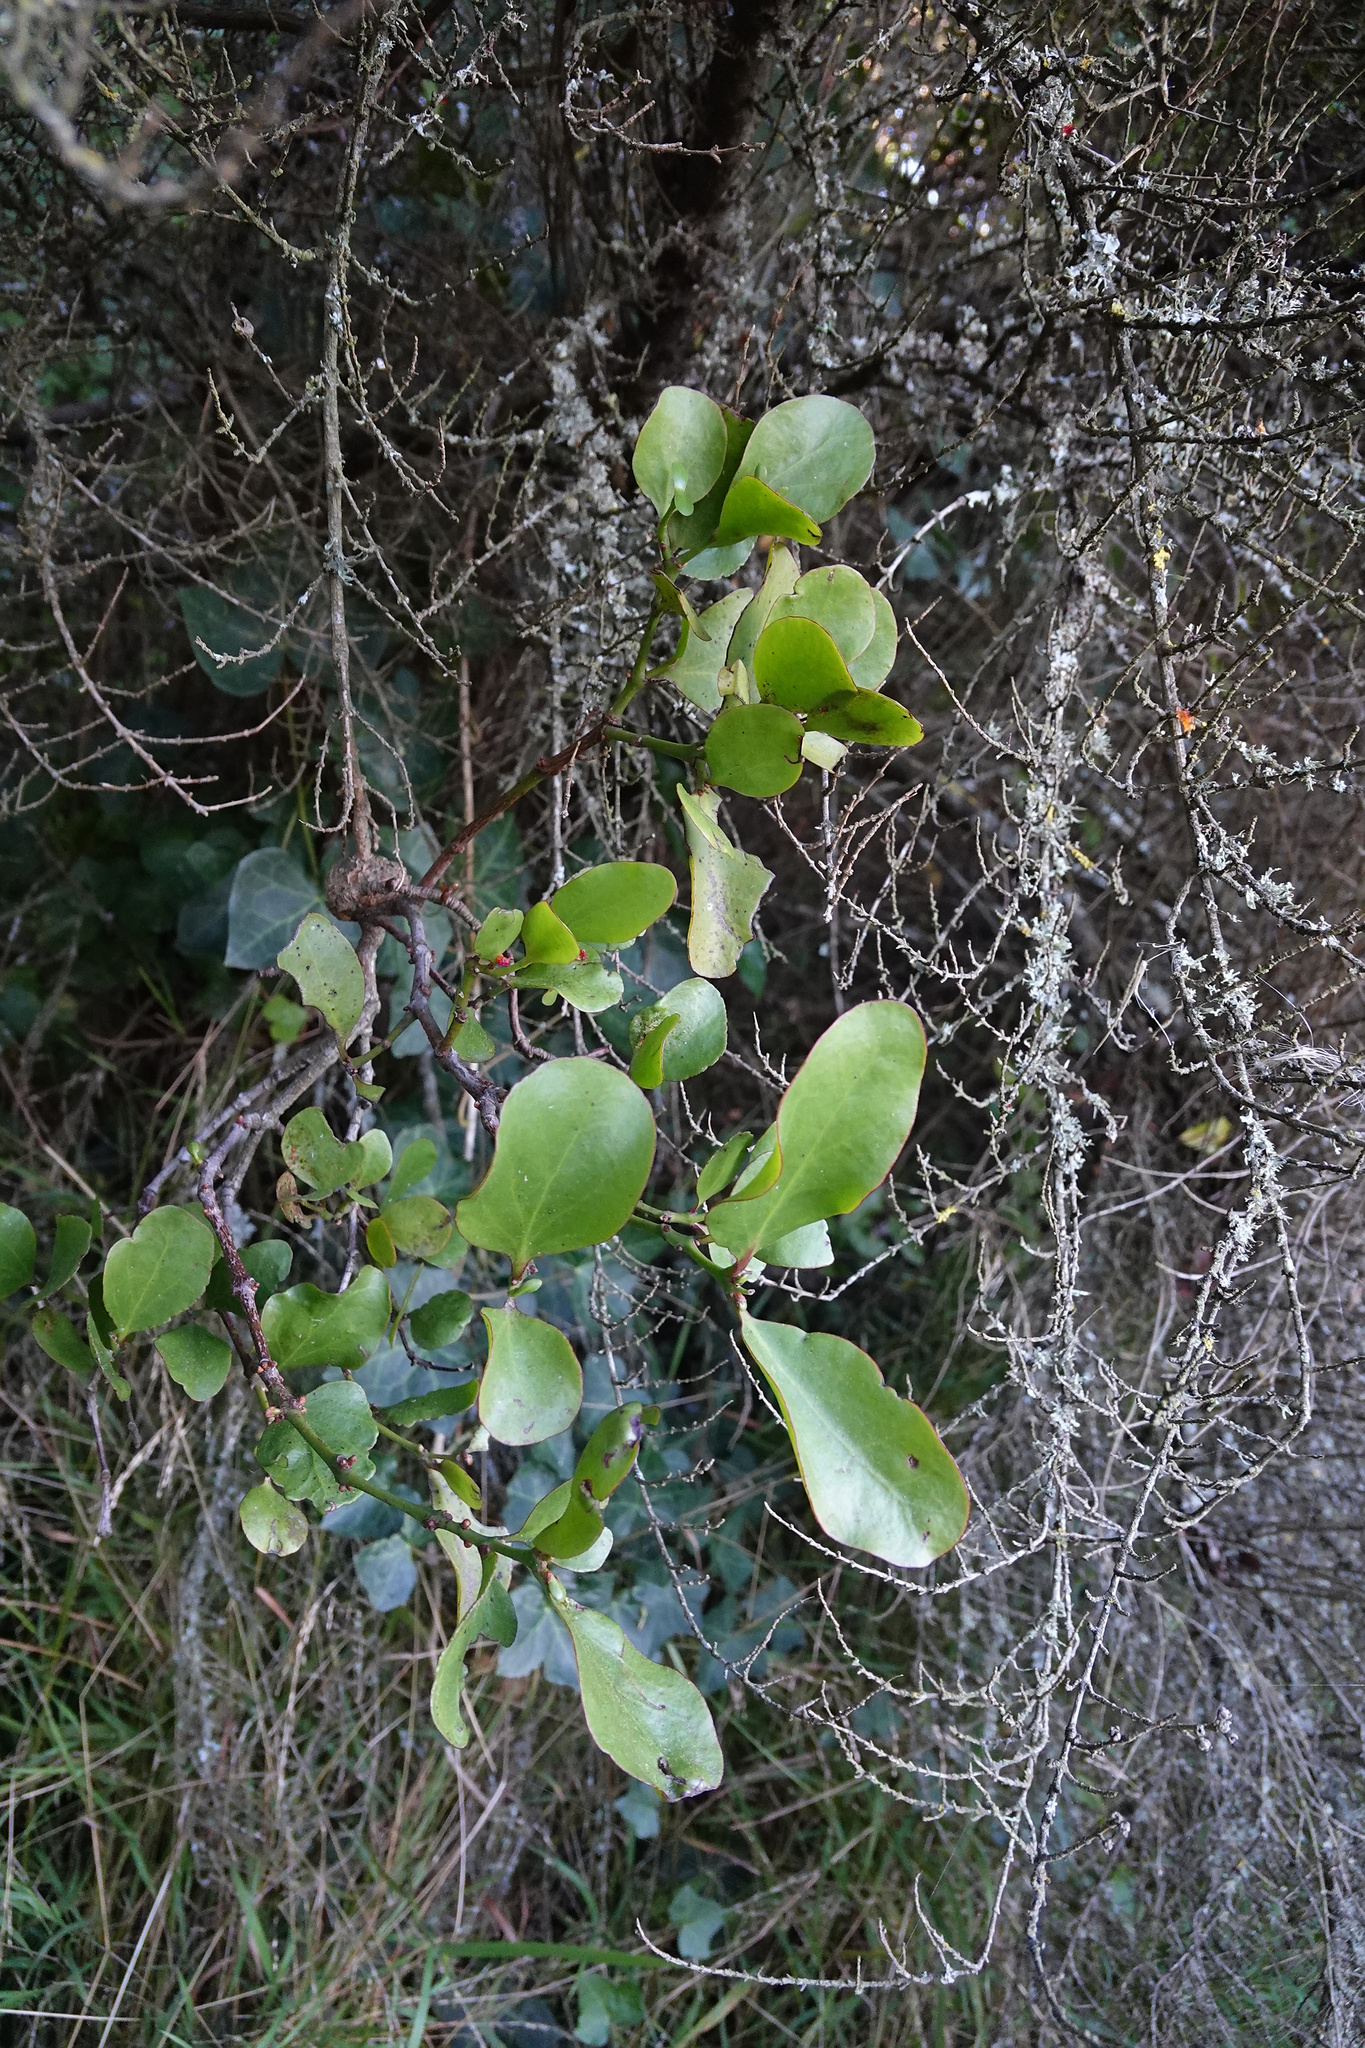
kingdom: Plantae
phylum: Tracheophyta
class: Magnoliopsida
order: Santalales
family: Loranthaceae
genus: Ileostylus
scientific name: Ileostylus micranthus
